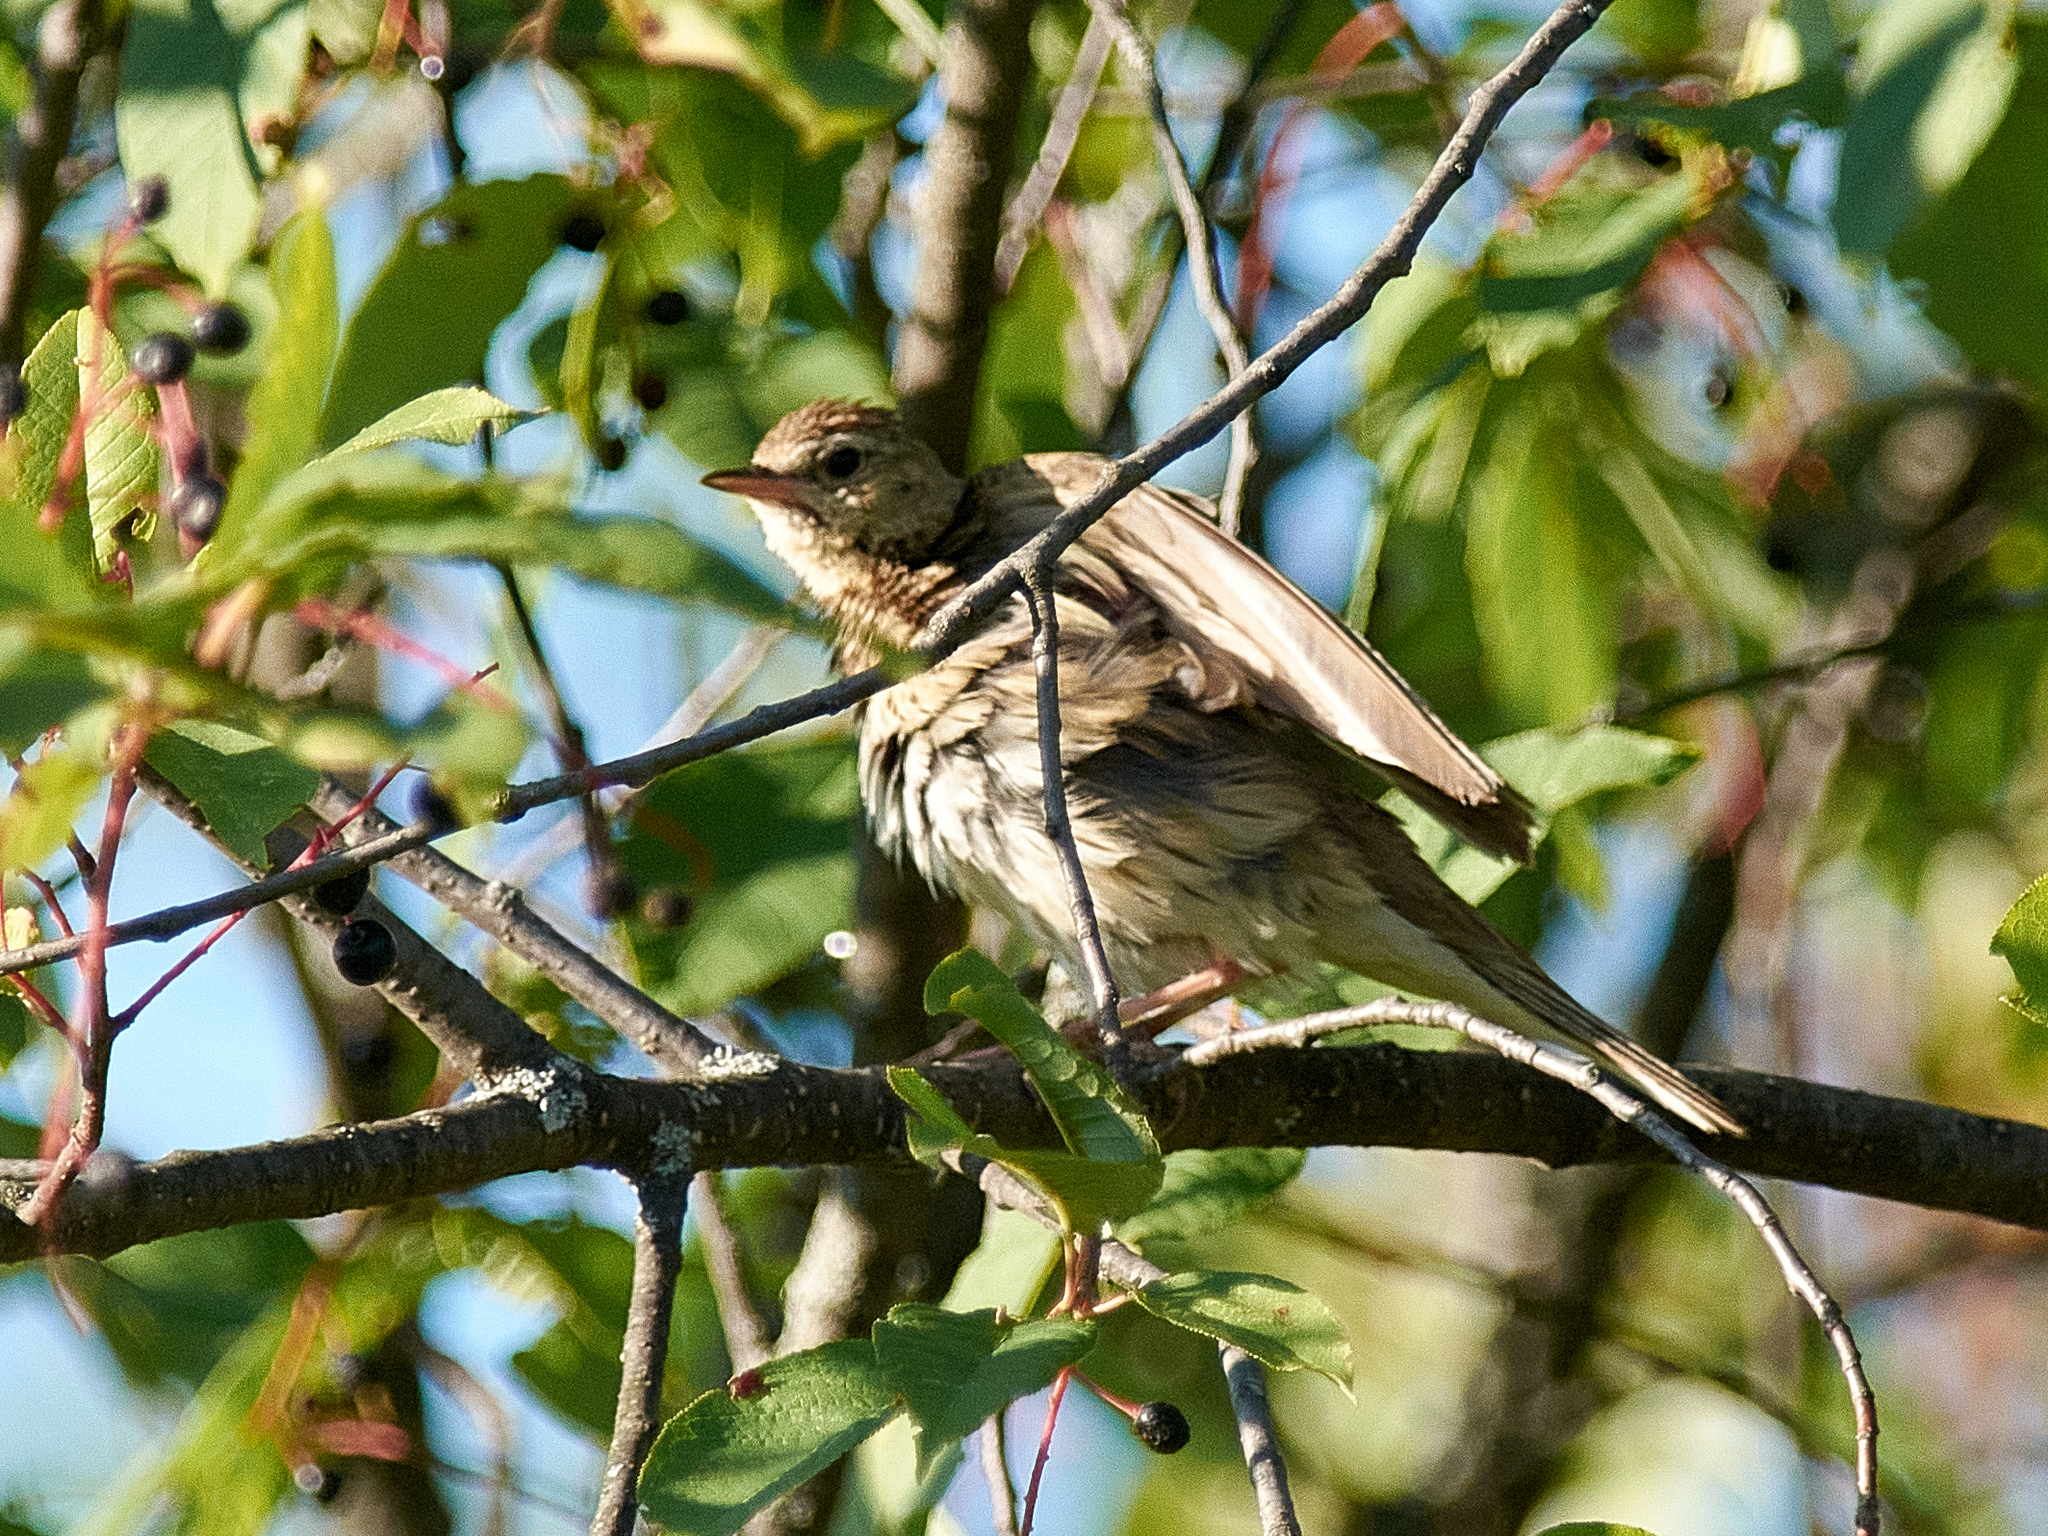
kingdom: Animalia
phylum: Chordata
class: Aves
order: Passeriformes
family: Motacillidae
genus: Anthus
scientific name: Anthus trivialis
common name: Tree pipit
